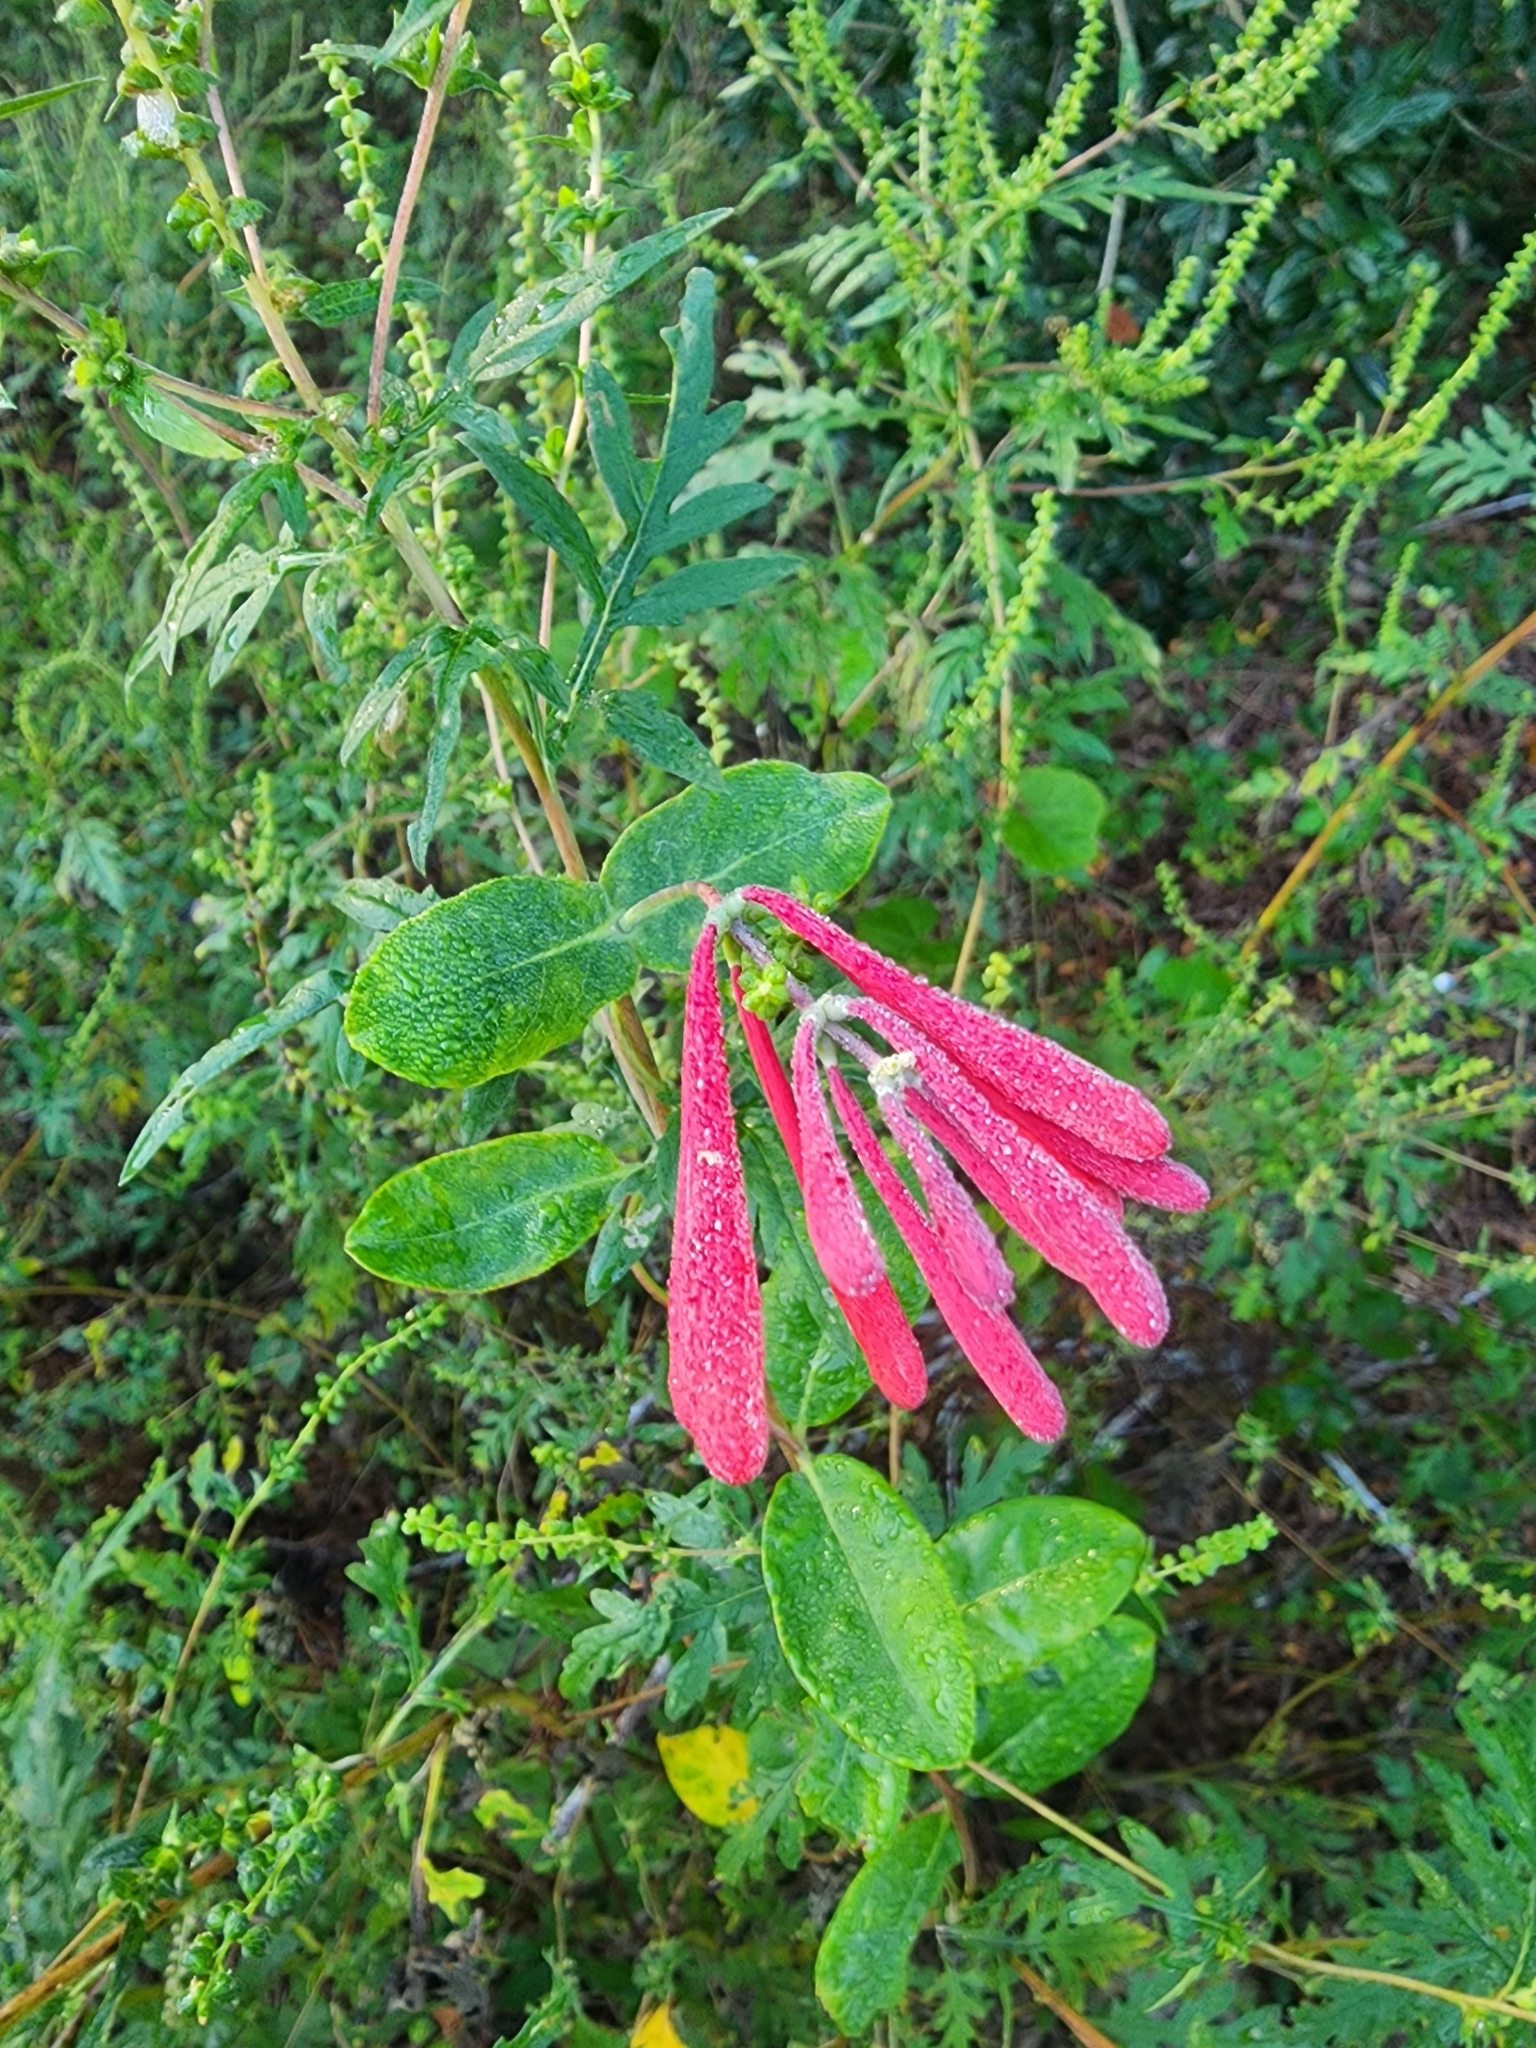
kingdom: Plantae
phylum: Tracheophyta
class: Magnoliopsida
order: Dipsacales
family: Caprifoliaceae
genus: Lonicera
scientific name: Lonicera sempervirens
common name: Coral honeysuckle
